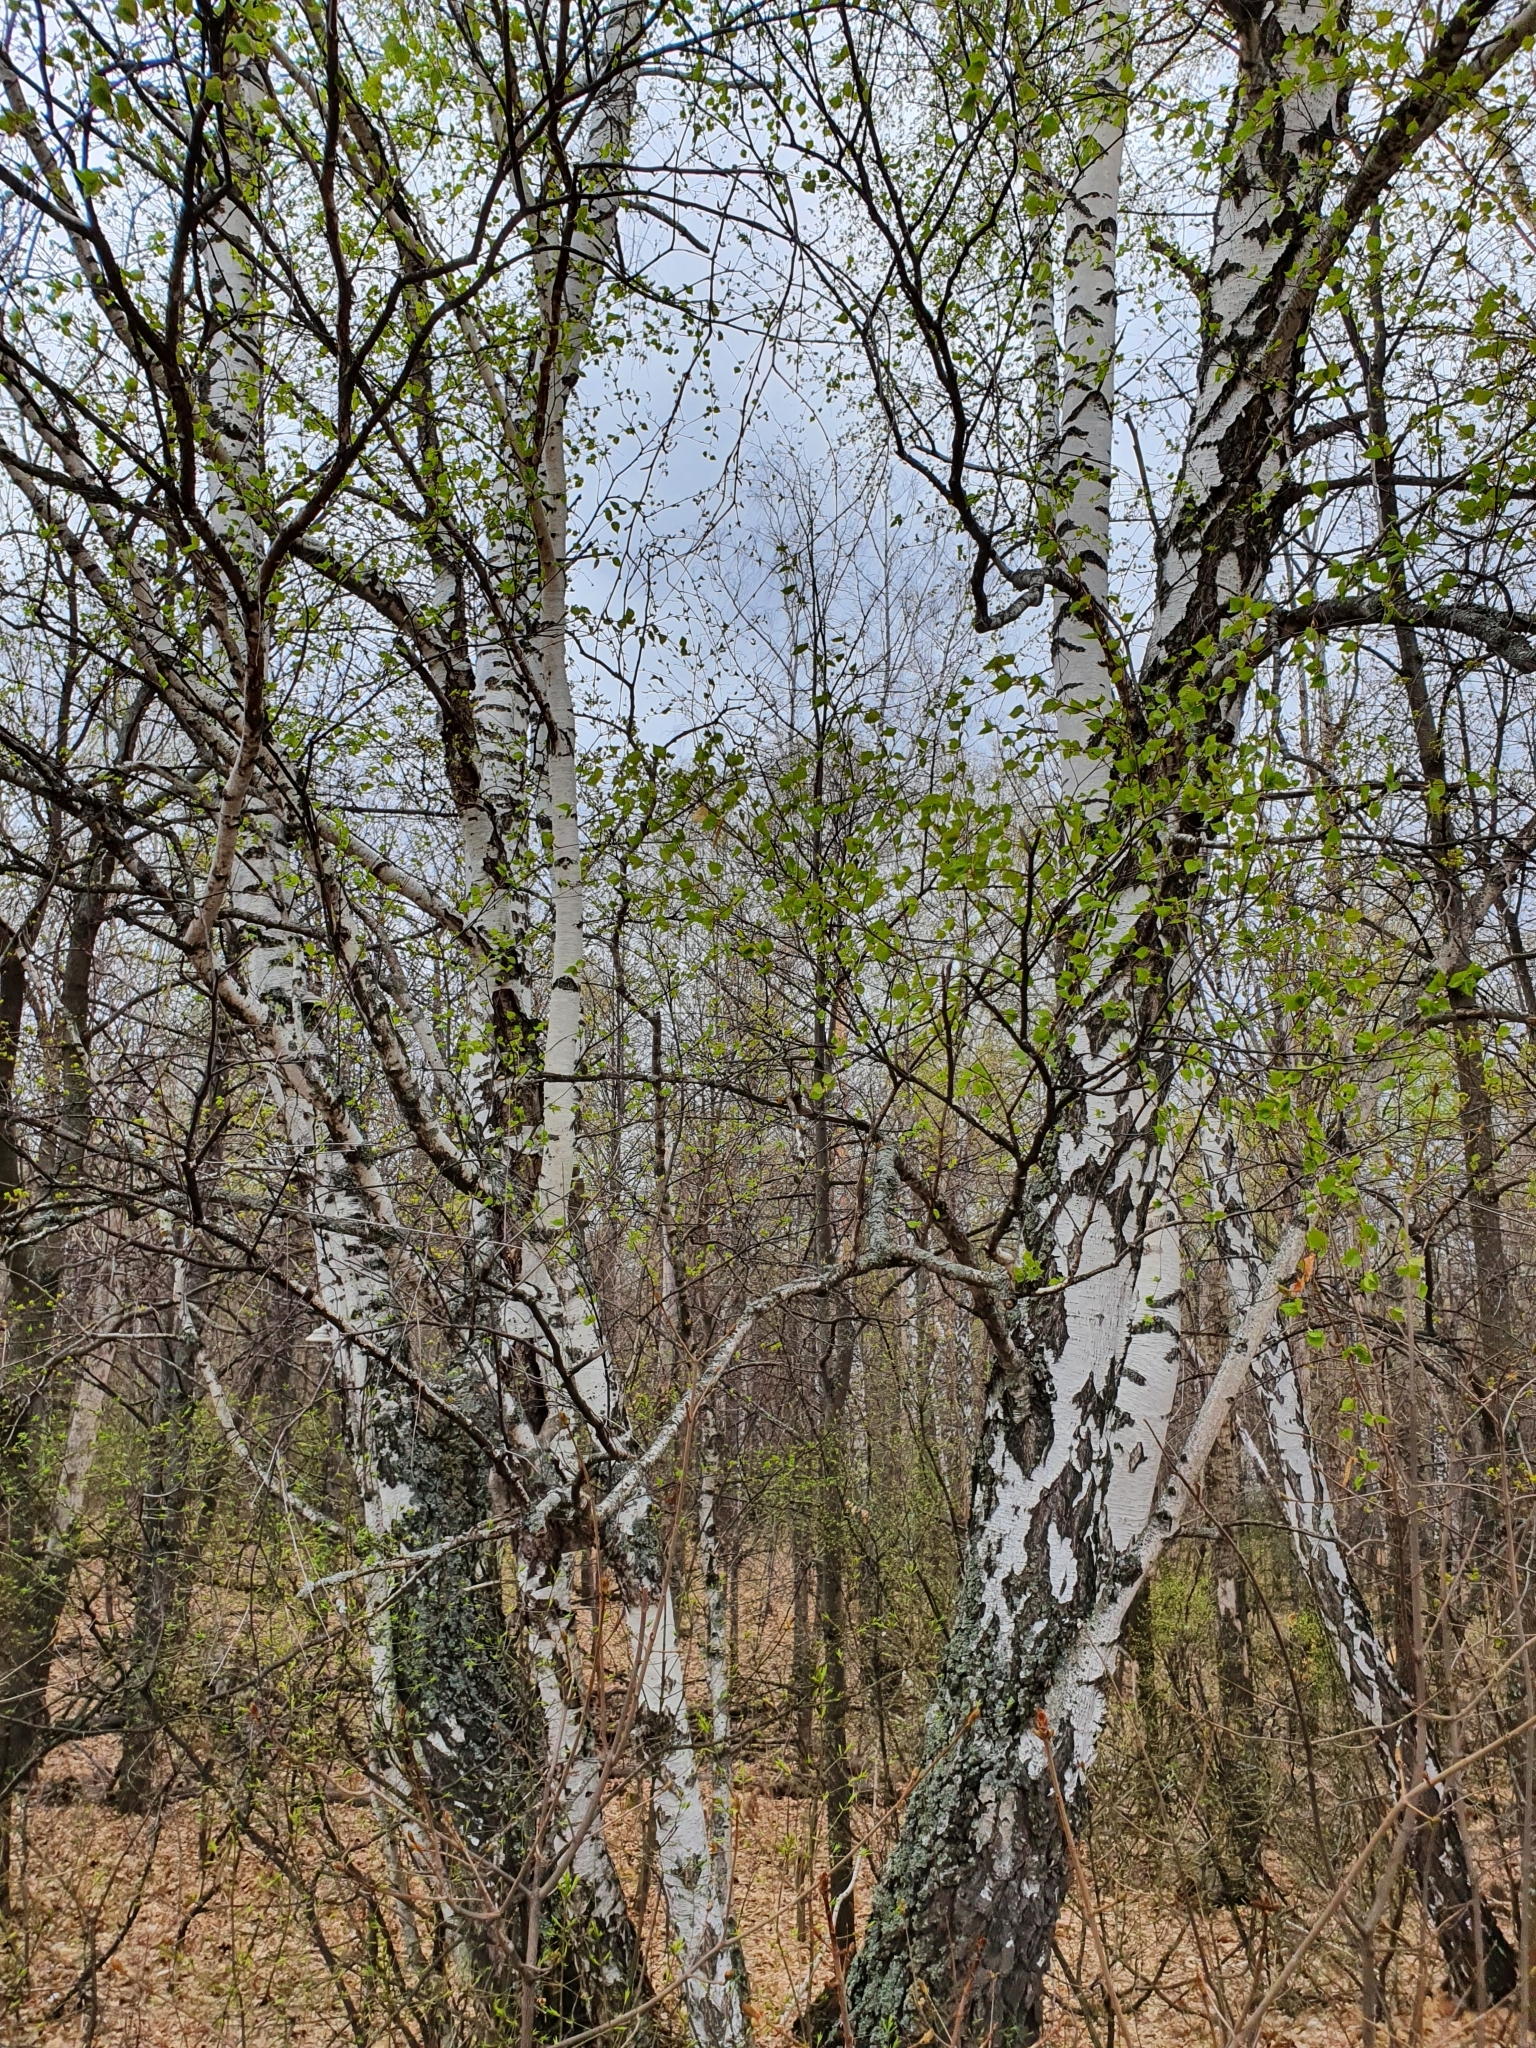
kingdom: Plantae
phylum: Tracheophyta
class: Magnoliopsida
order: Fagales
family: Betulaceae
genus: Betula
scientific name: Betula pendula
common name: Silver birch
